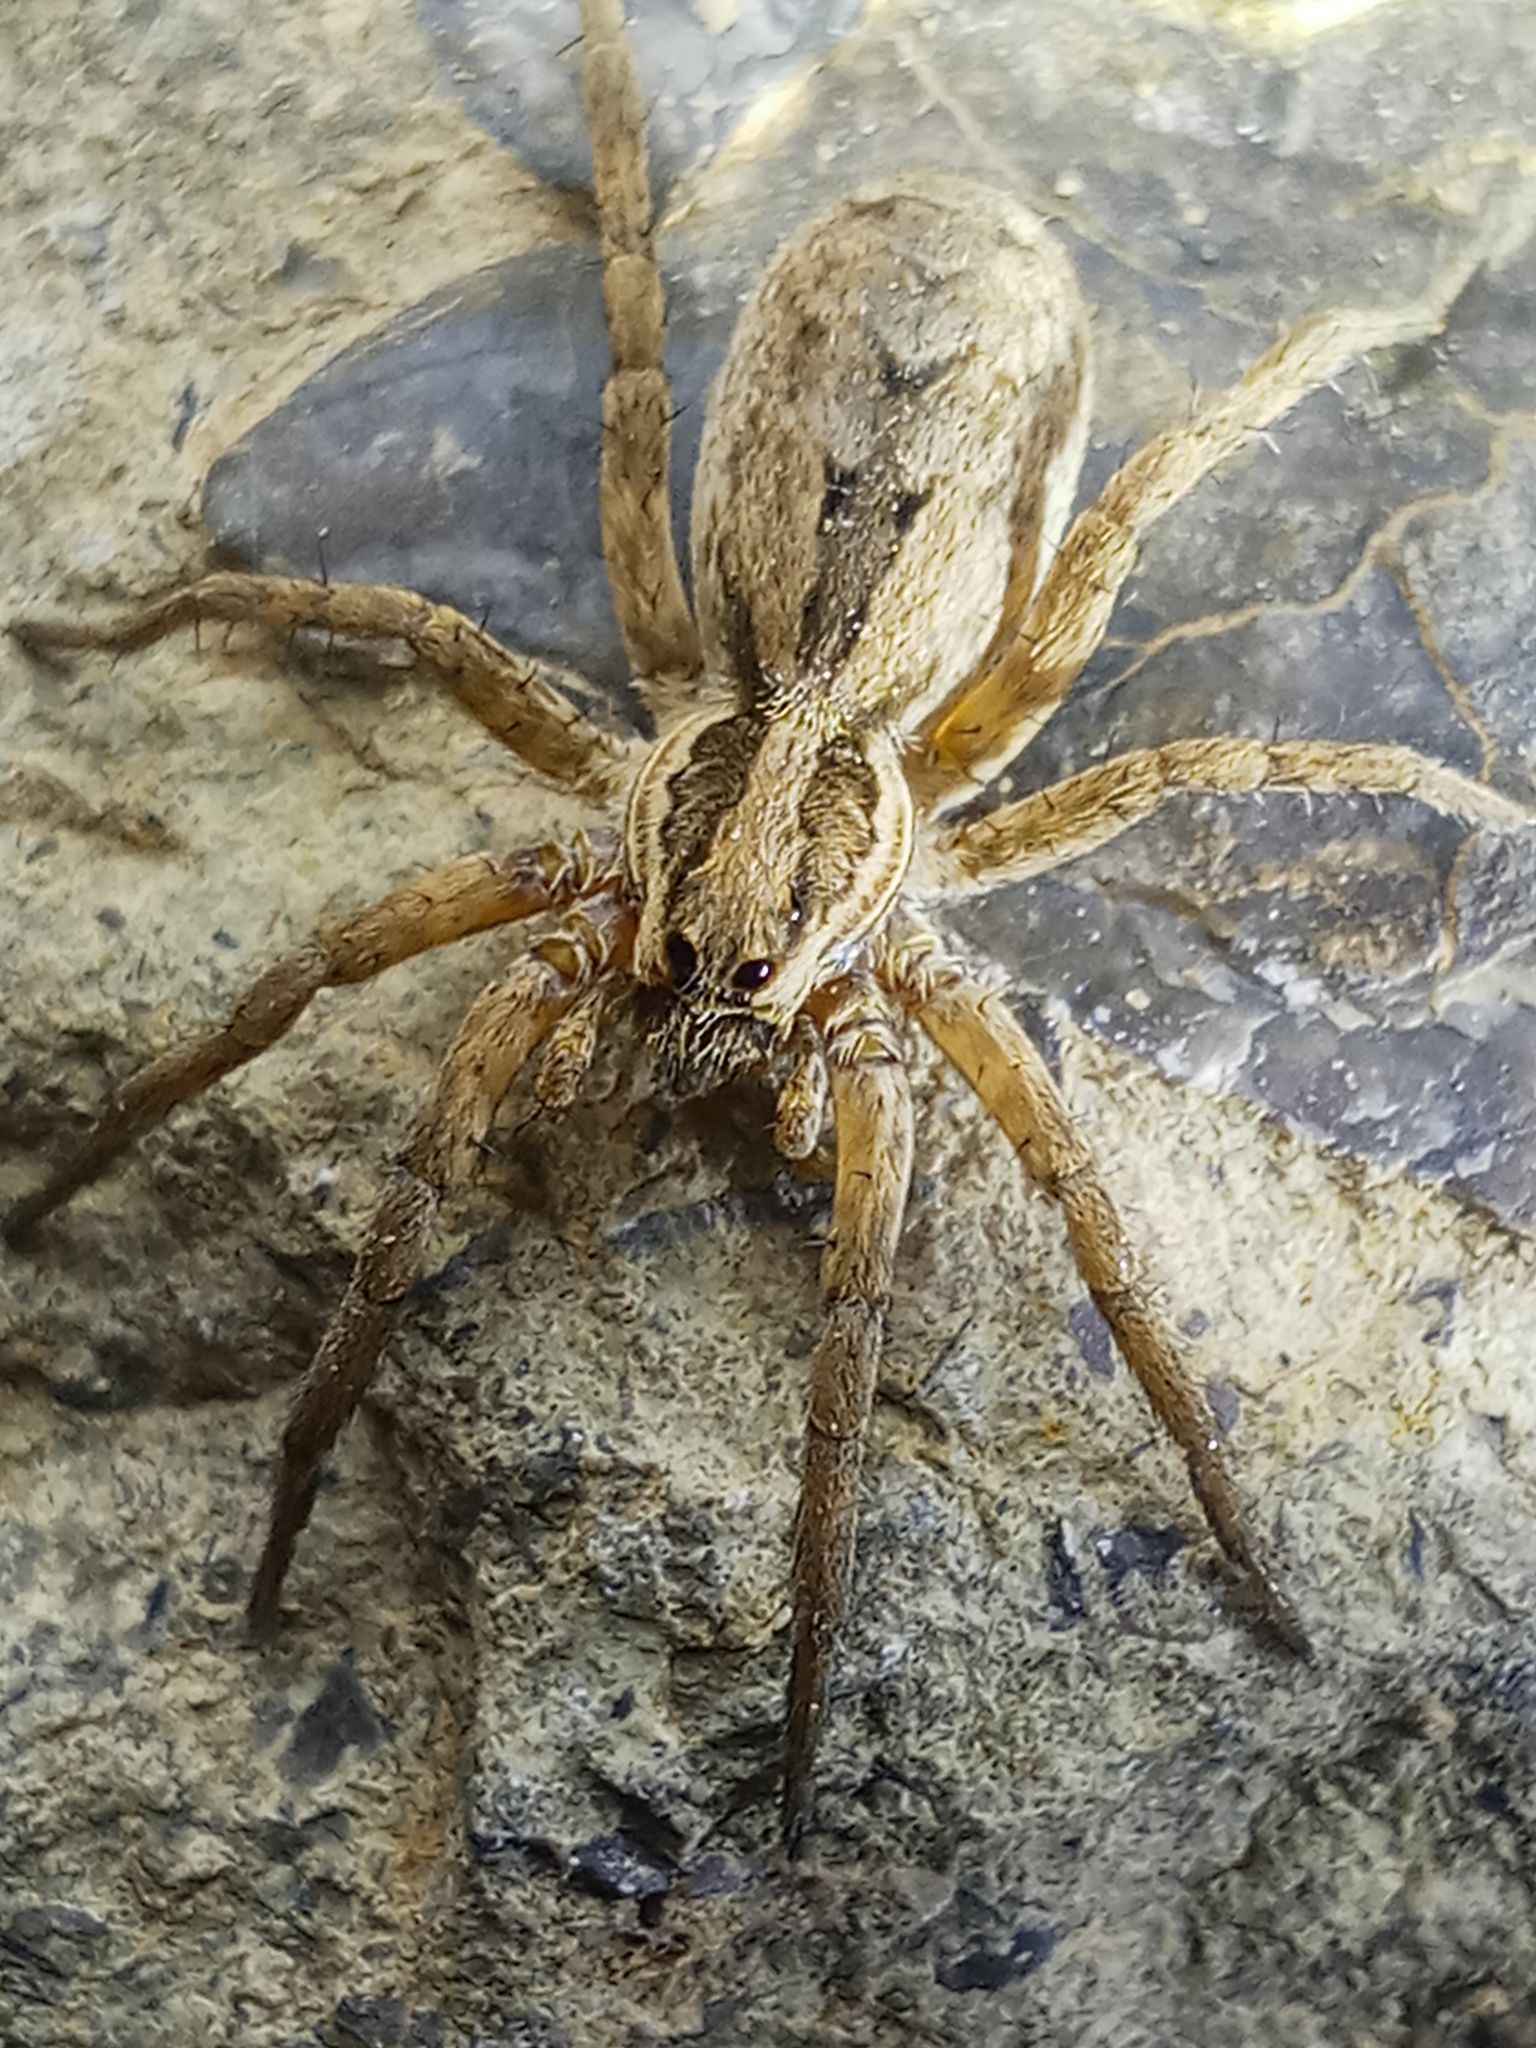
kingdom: Animalia
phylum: Arthropoda
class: Arachnida
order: Araneae
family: Lycosidae
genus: Hogna
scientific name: Hogna radiata
